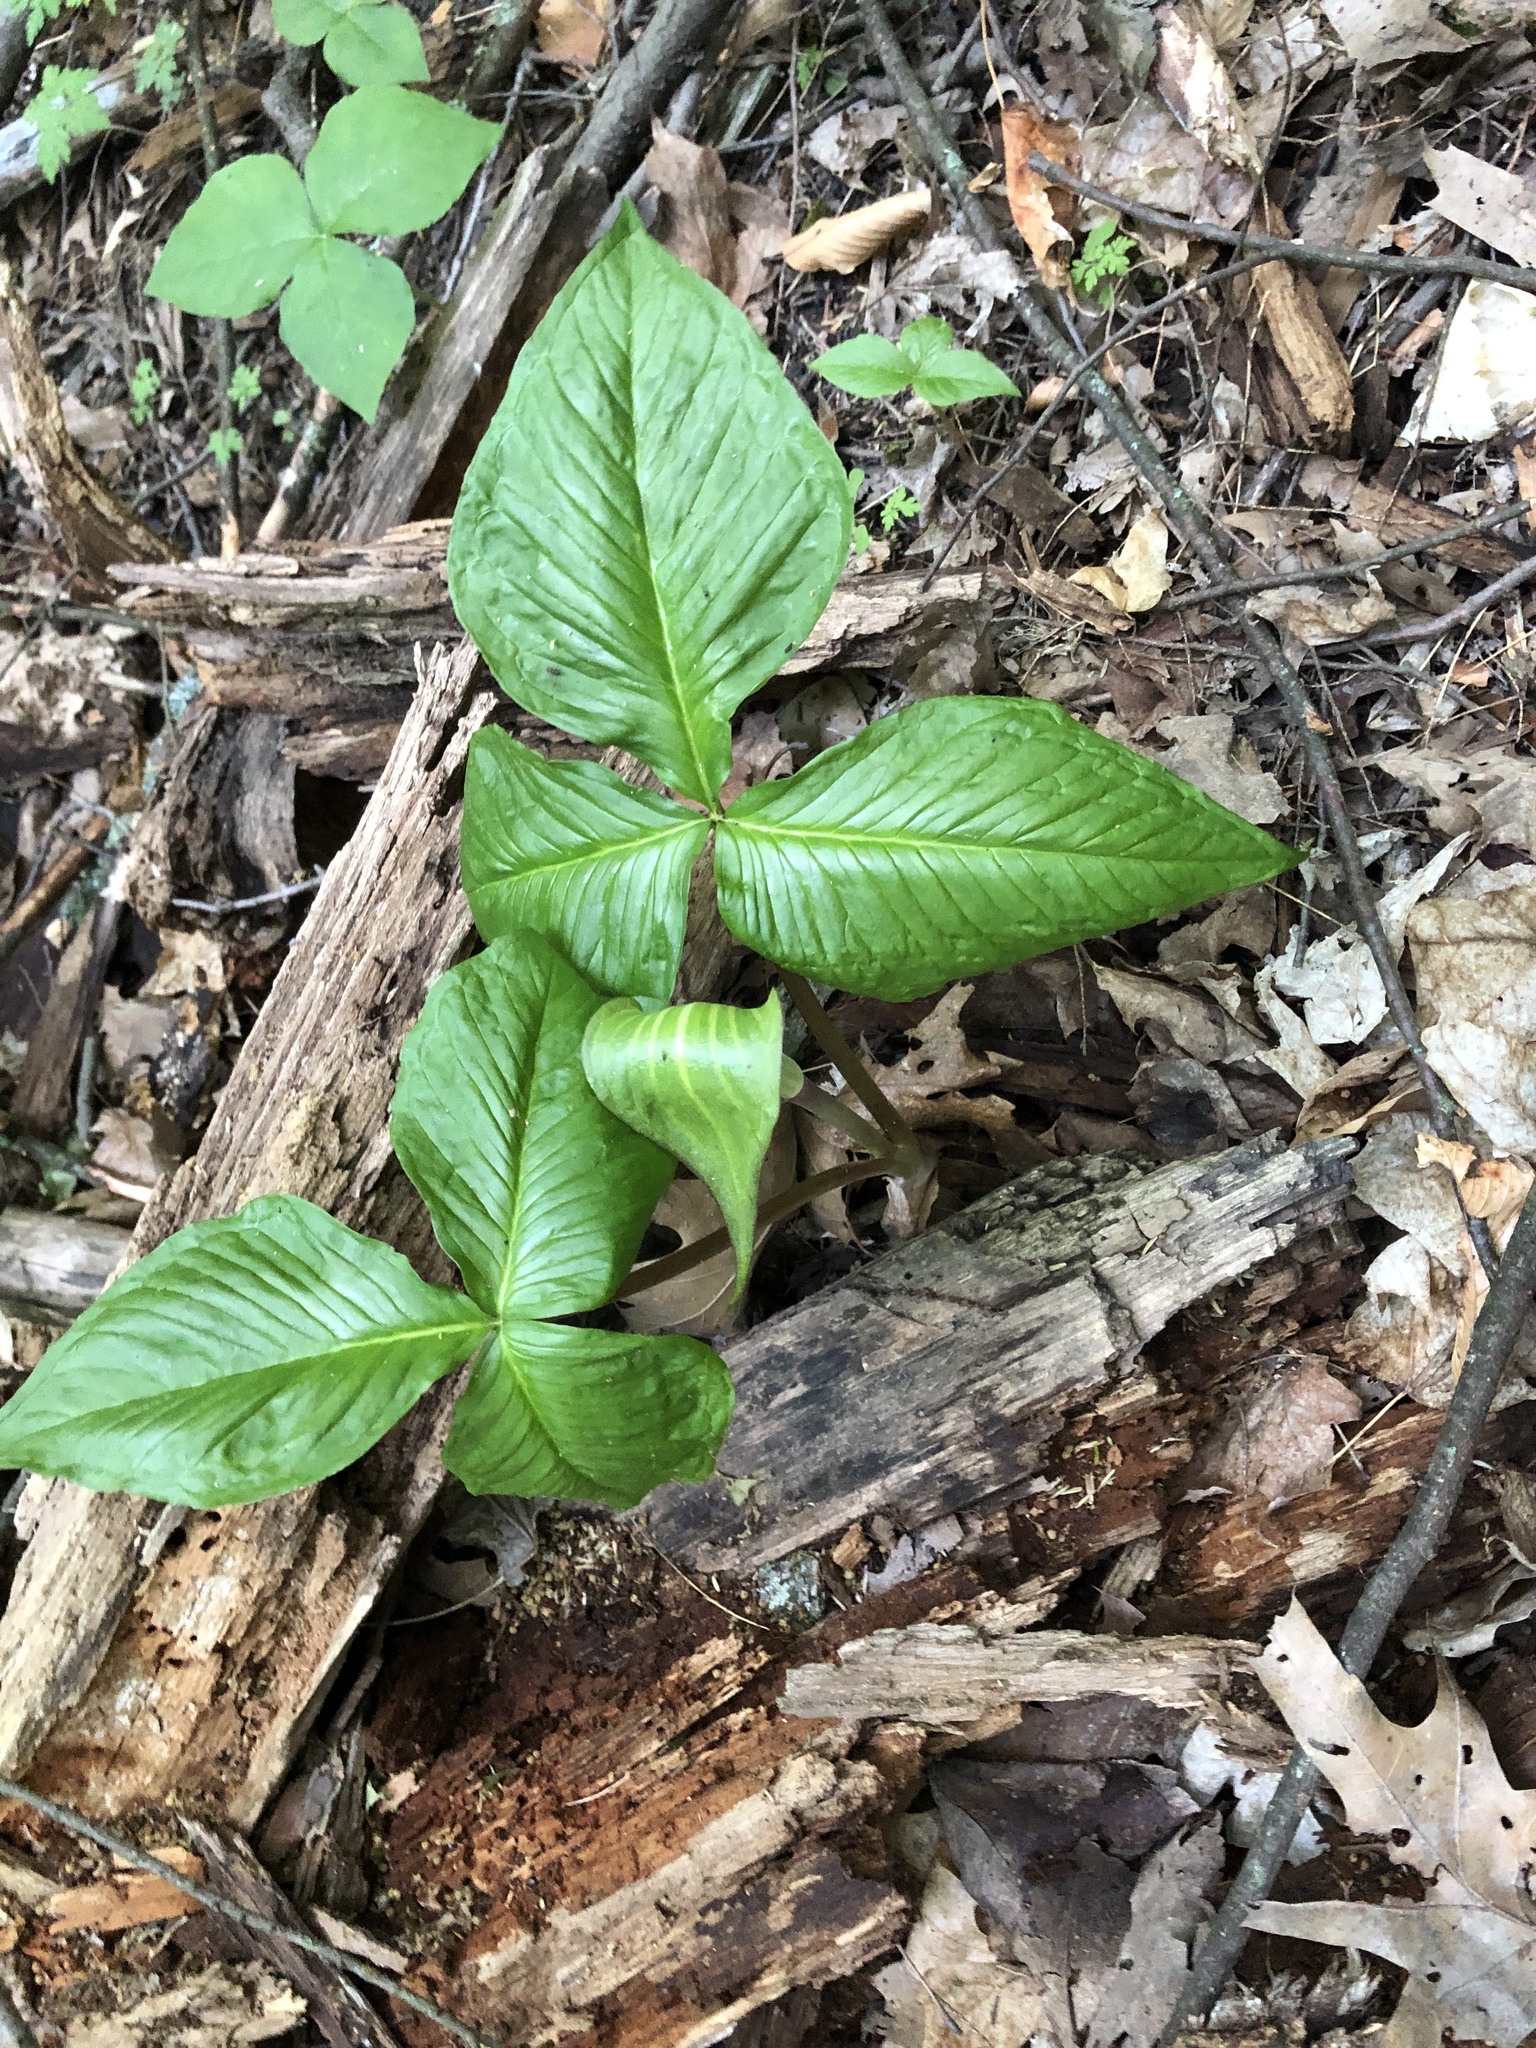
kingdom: Plantae
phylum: Tracheophyta
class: Liliopsida
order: Alismatales
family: Araceae
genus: Arisaema
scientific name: Arisaema triphyllum
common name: Jack-in-the-pulpit
